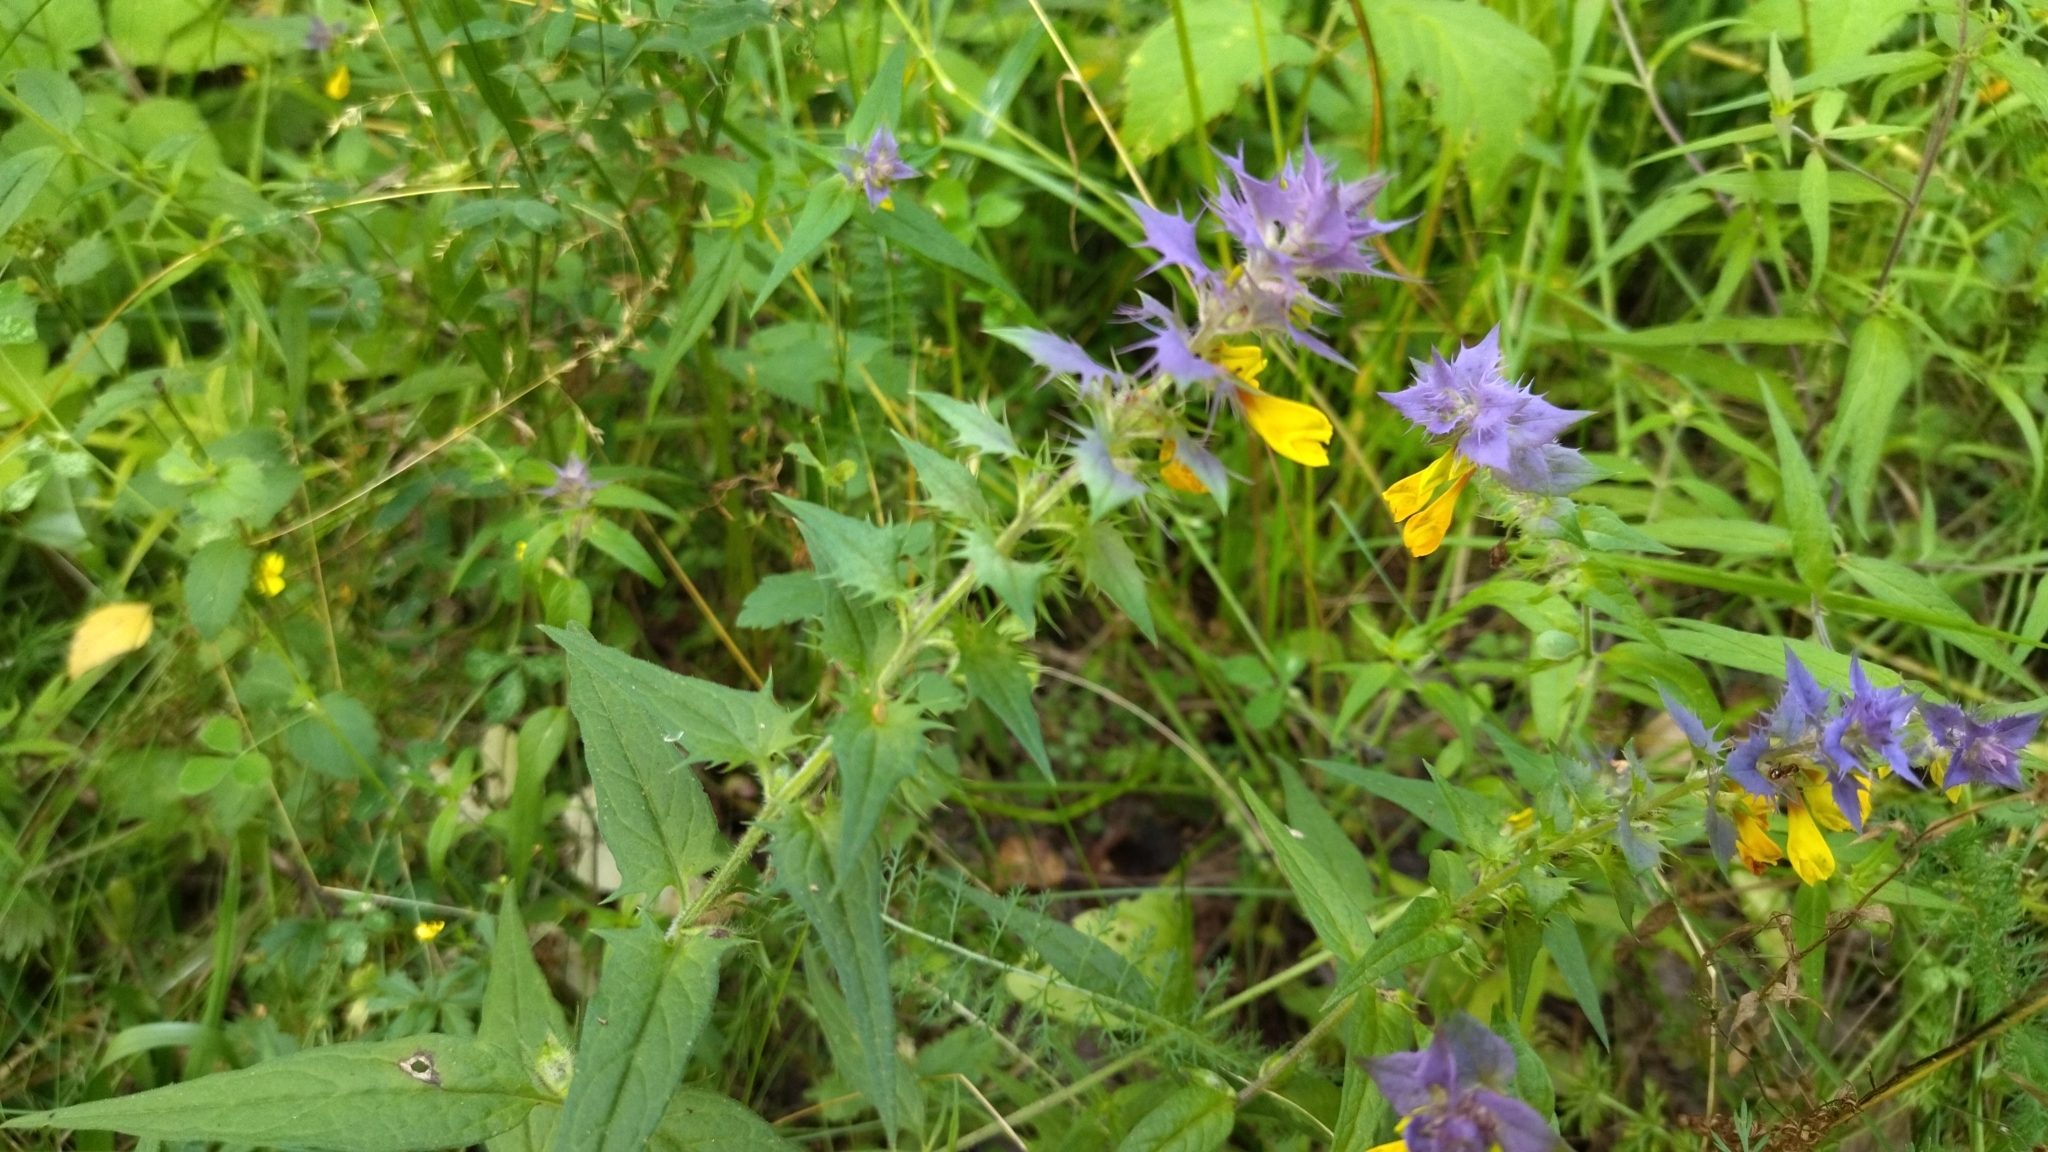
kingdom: Plantae
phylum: Tracheophyta
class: Magnoliopsida
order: Lamiales
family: Orobanchaceae
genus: Melampyrum
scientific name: Melampyrum nemorosum
